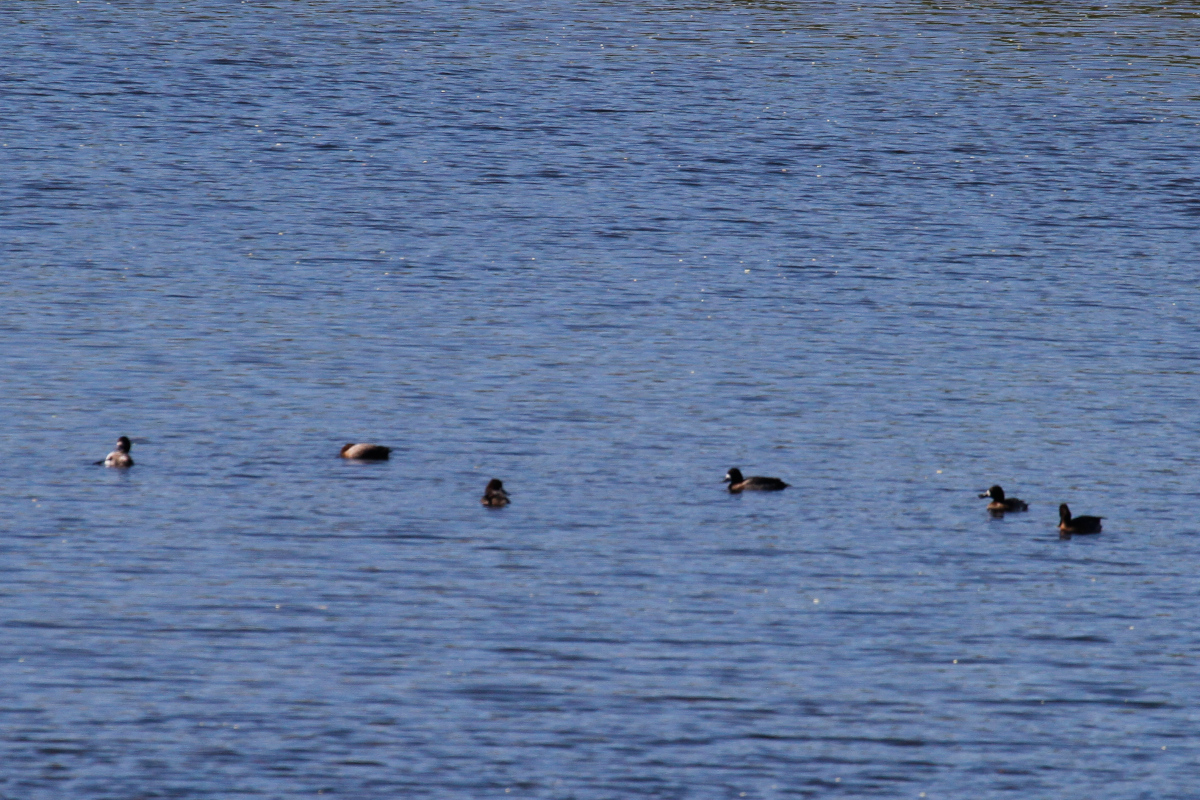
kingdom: Animalia
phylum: Chordata
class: Aves
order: Anseriformes
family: Anatidae
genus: Aythya
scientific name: Aythya affinis
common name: Lesser scaup
